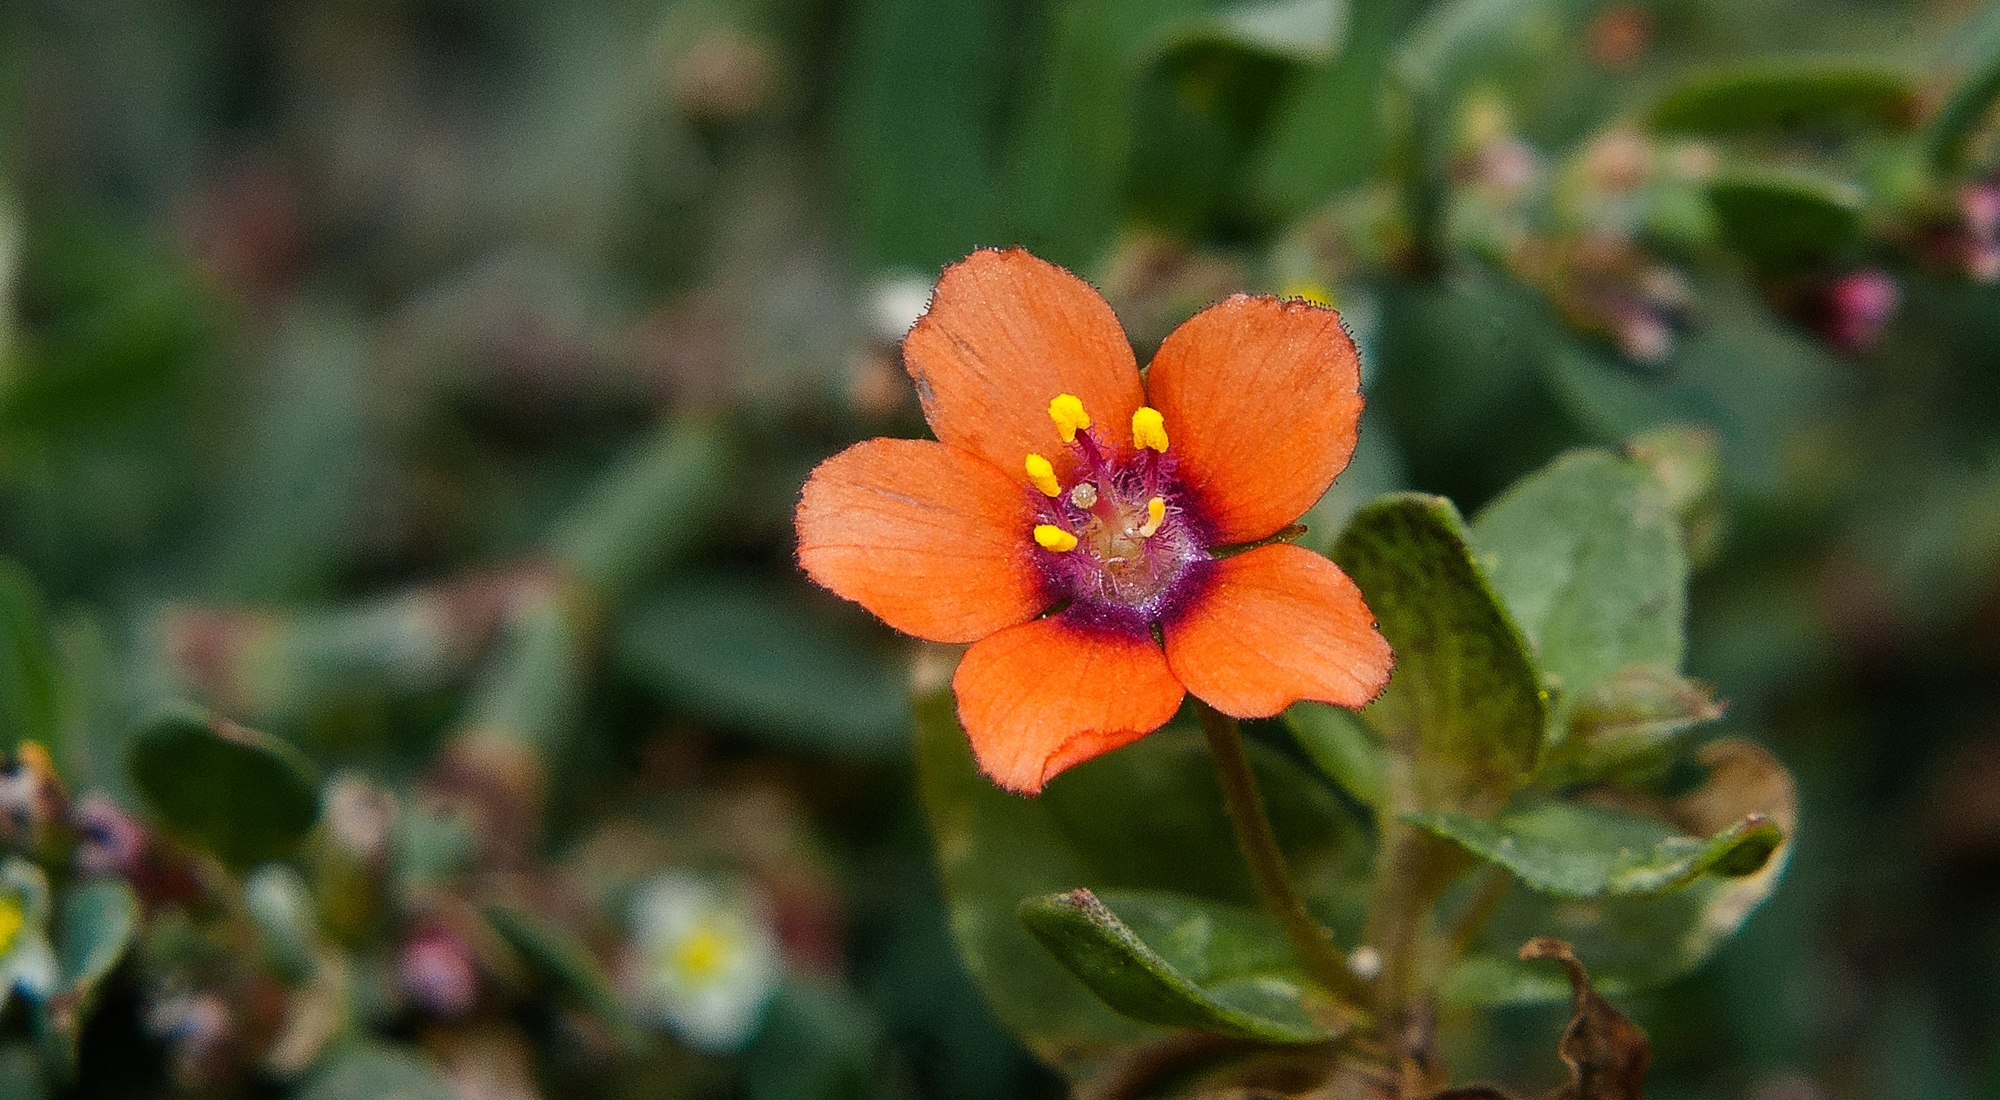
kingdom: Plantae
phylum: Tracheophyta
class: Magnoliopsida
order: Ericales
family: Primulaceae
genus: Lysimachia
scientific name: Lysimachia arvensis
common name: Scarlet pimpernel
